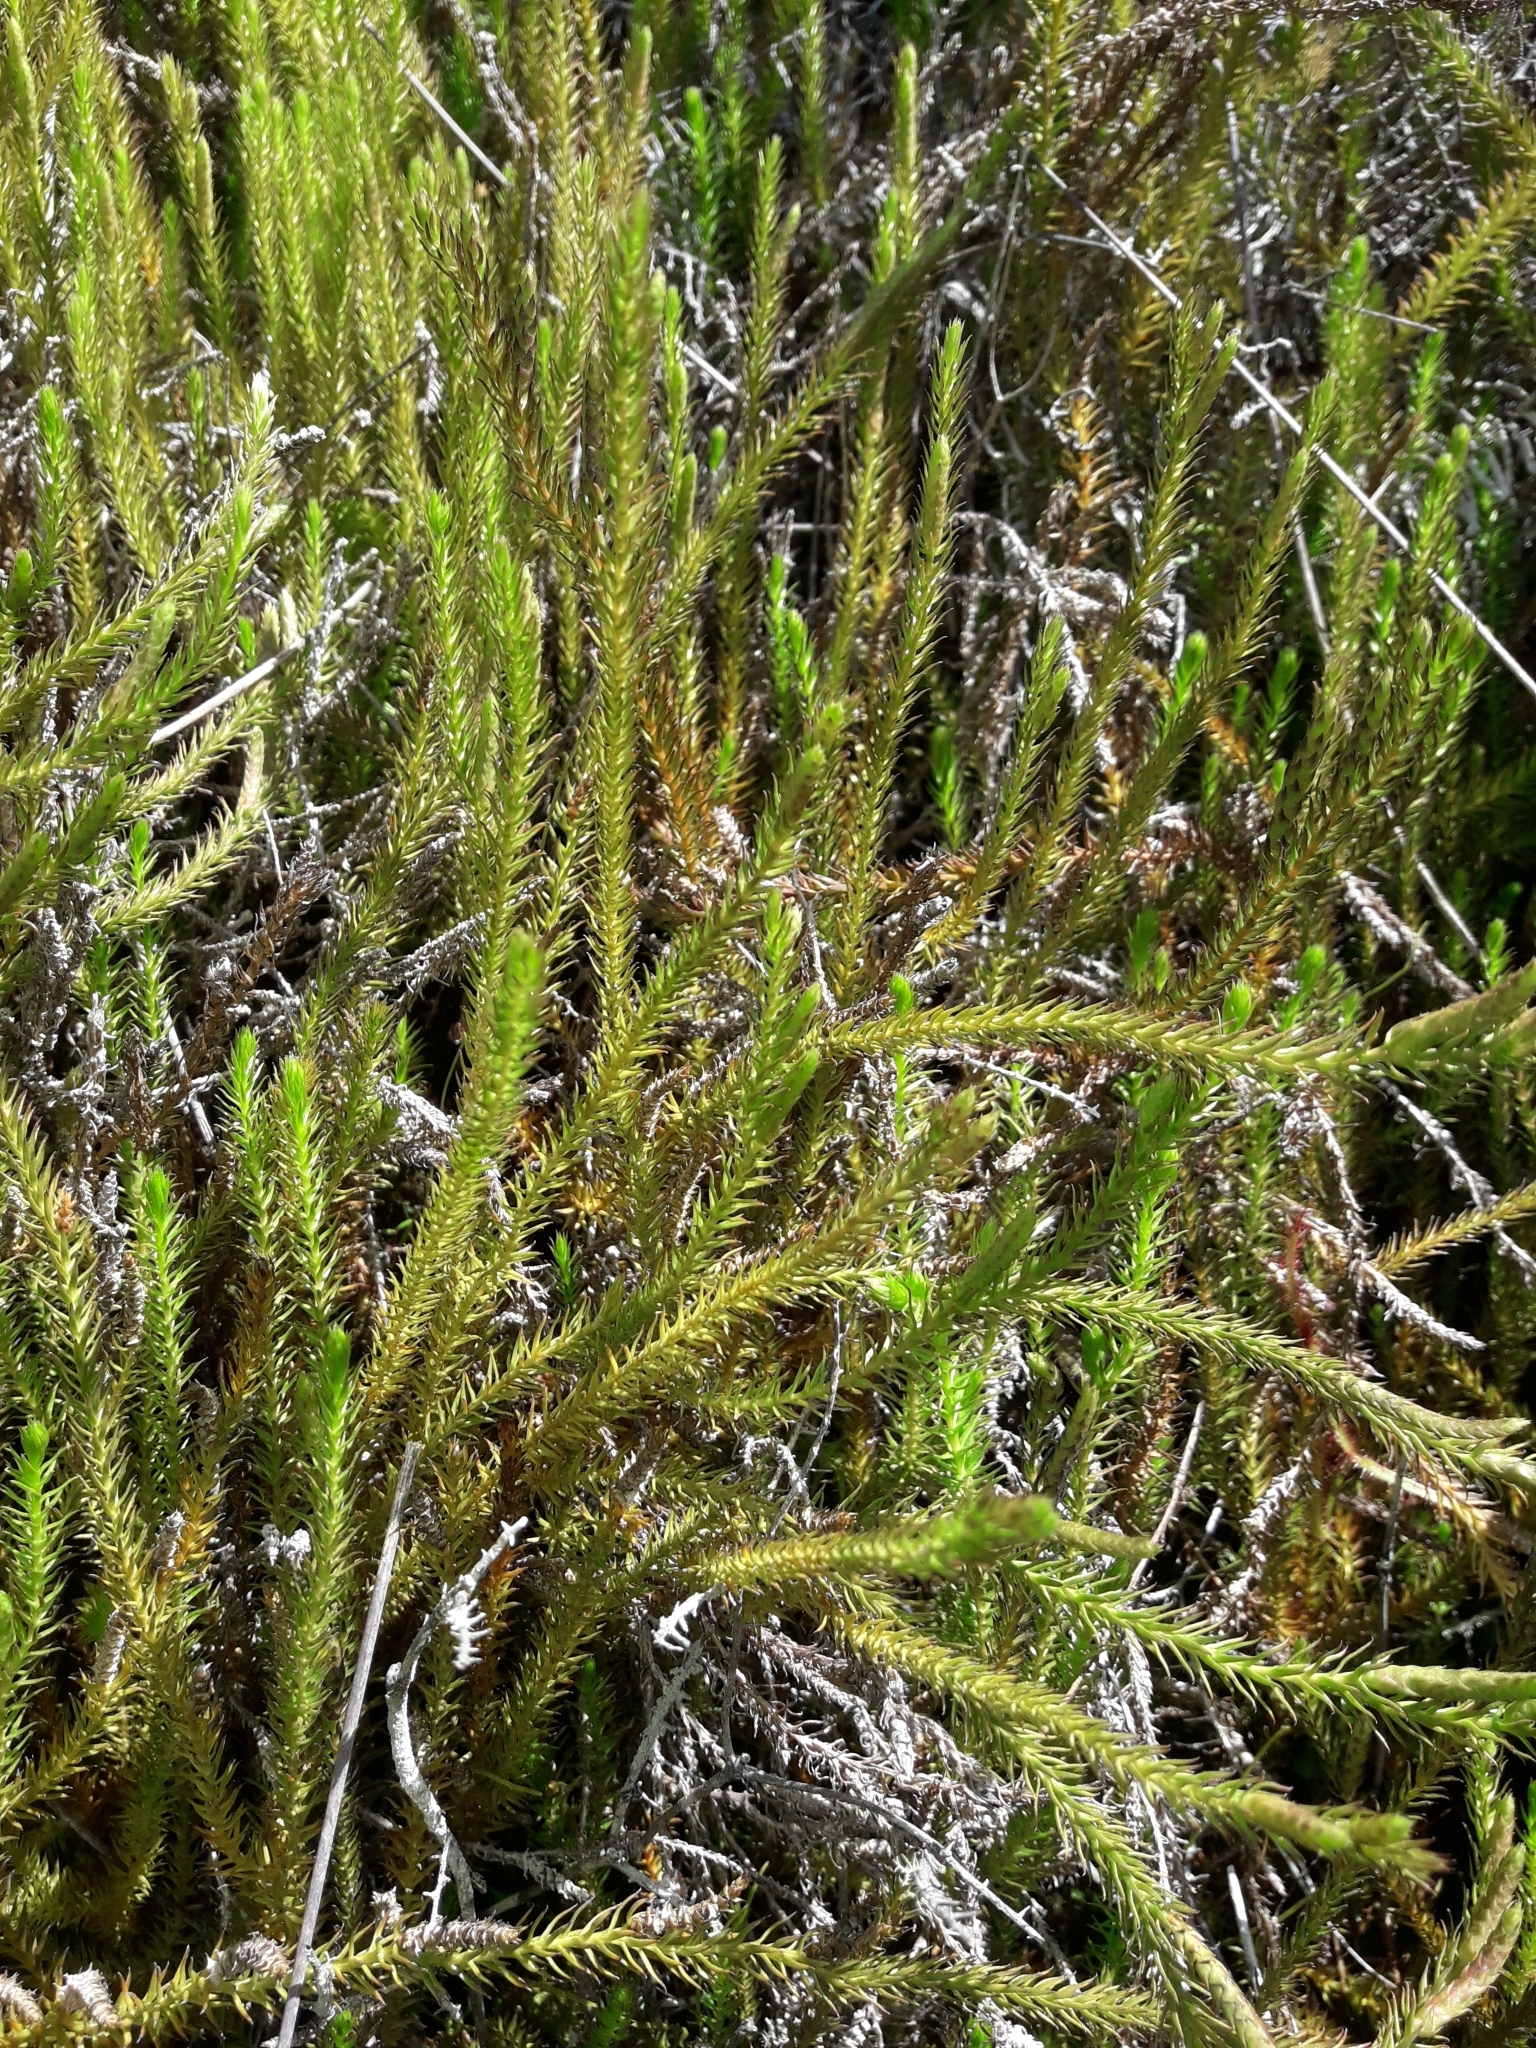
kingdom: Plantae
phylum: Tracheophyta
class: Lycopodiopsida
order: Lycopodiales
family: Lycopodiaceae
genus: Lateristachys
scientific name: Lateristachys lateralis
